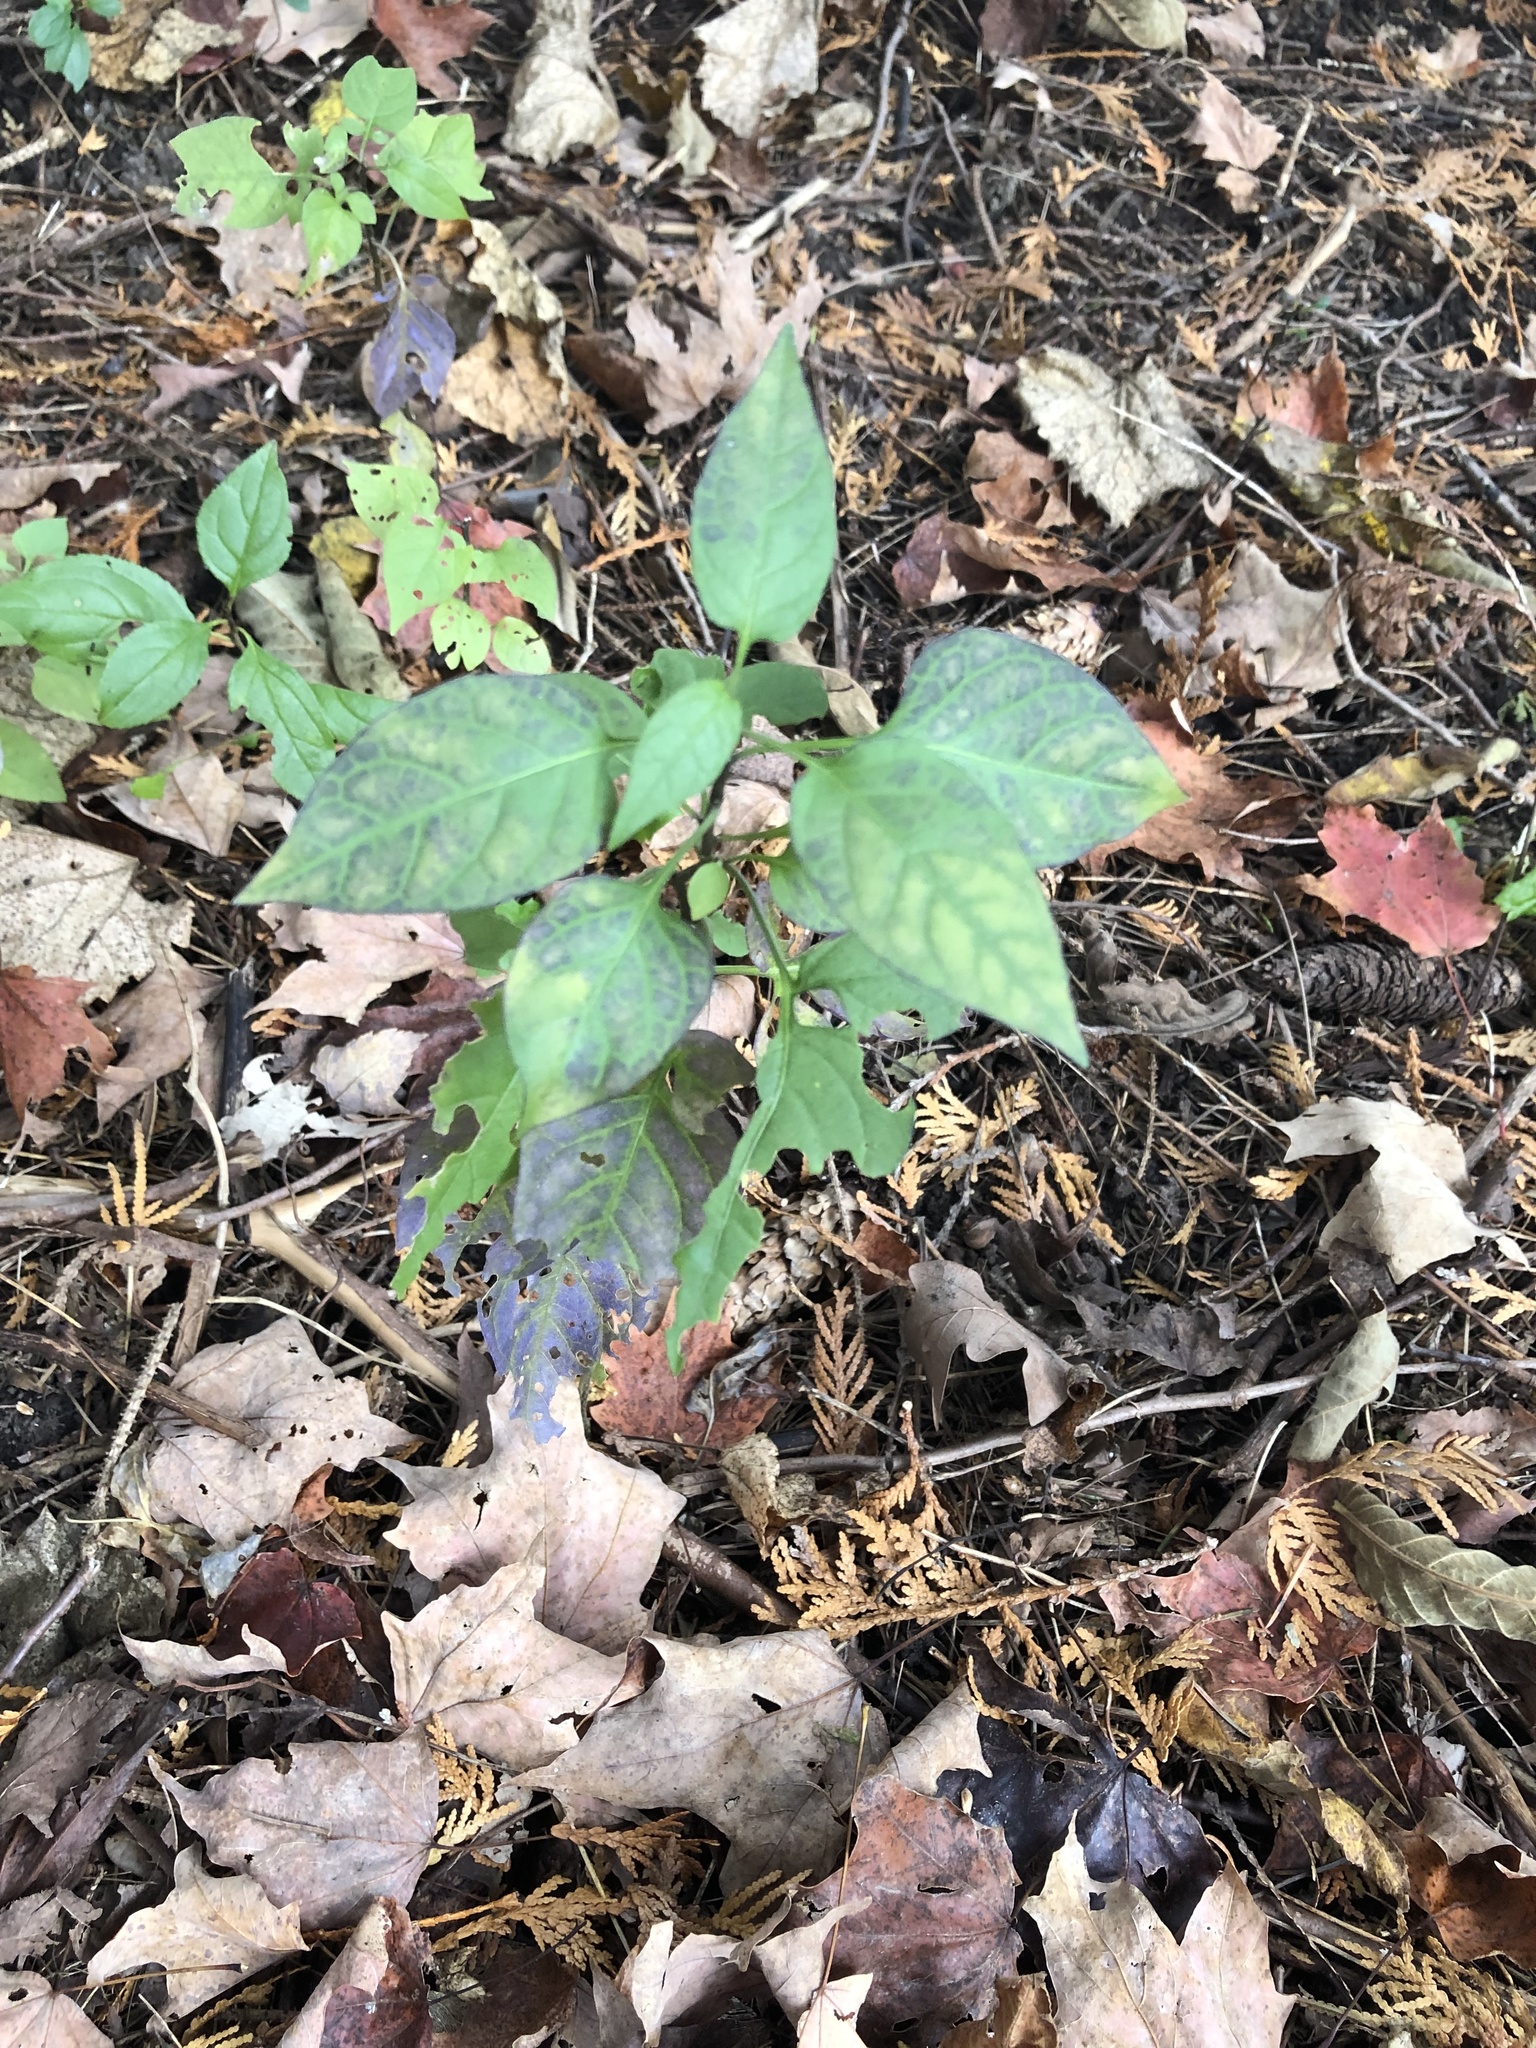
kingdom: Plantae
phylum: Tracheophyta
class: Magnoliopsida
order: Solanales
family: Solanaceae
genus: Solanum
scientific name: Solanum dulcamara
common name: Climbing nightshade
